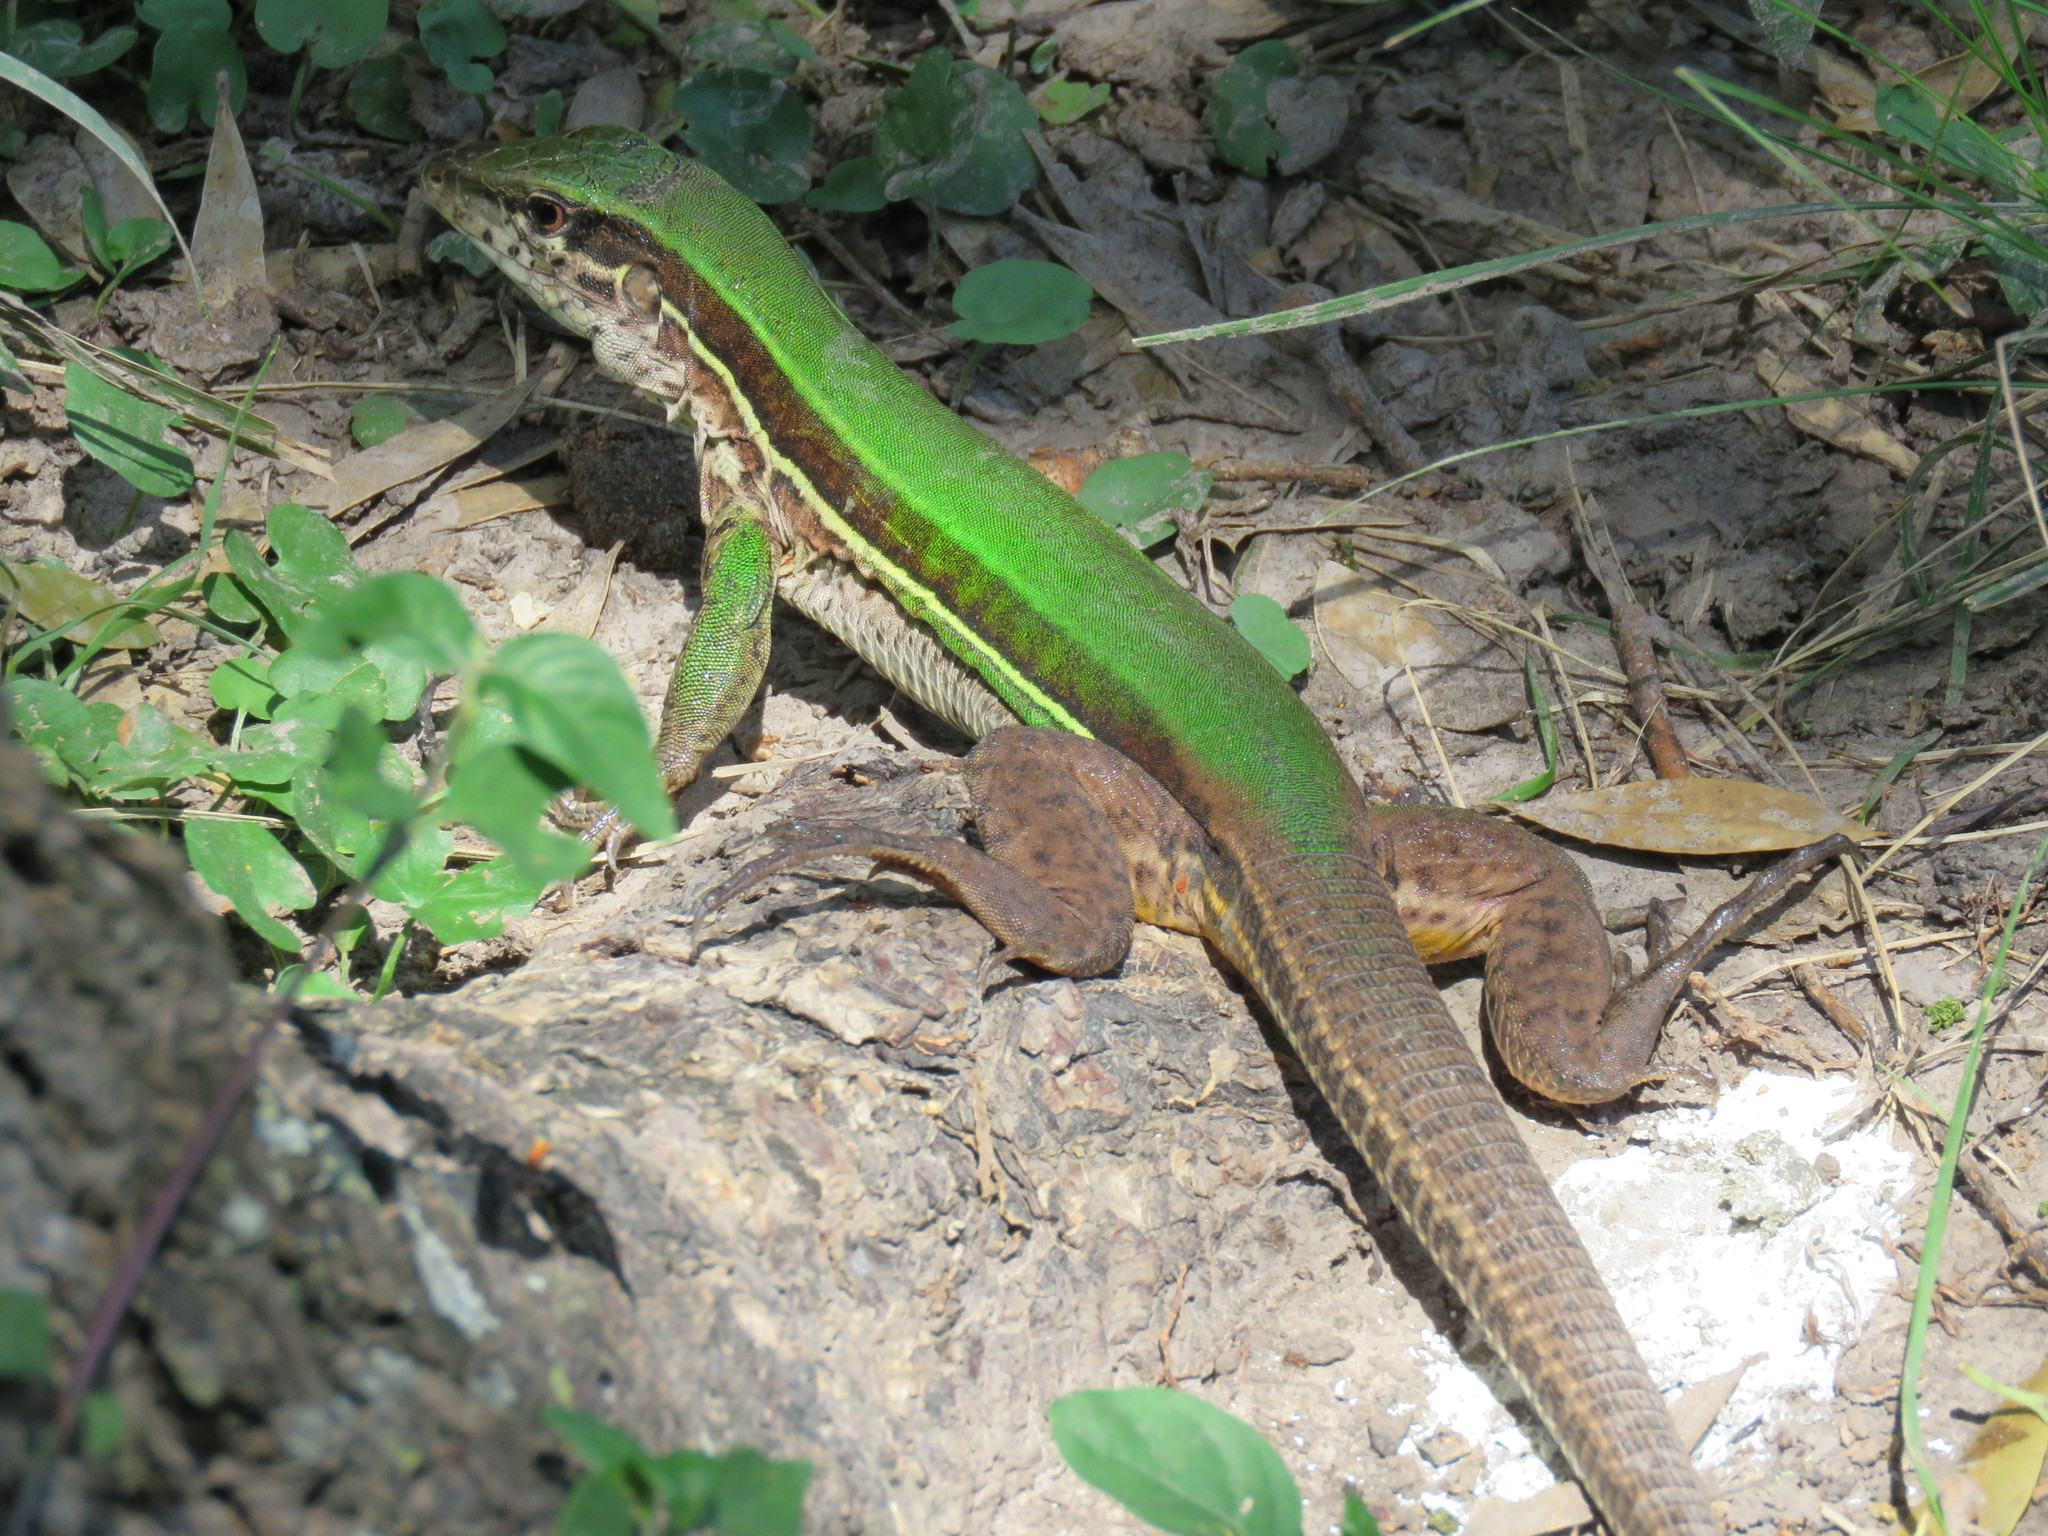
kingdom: Animalia
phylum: Chordata
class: Squamata
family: Teiidae
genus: Ameiva
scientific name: Ameiva ameiva
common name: Giant ameiva
